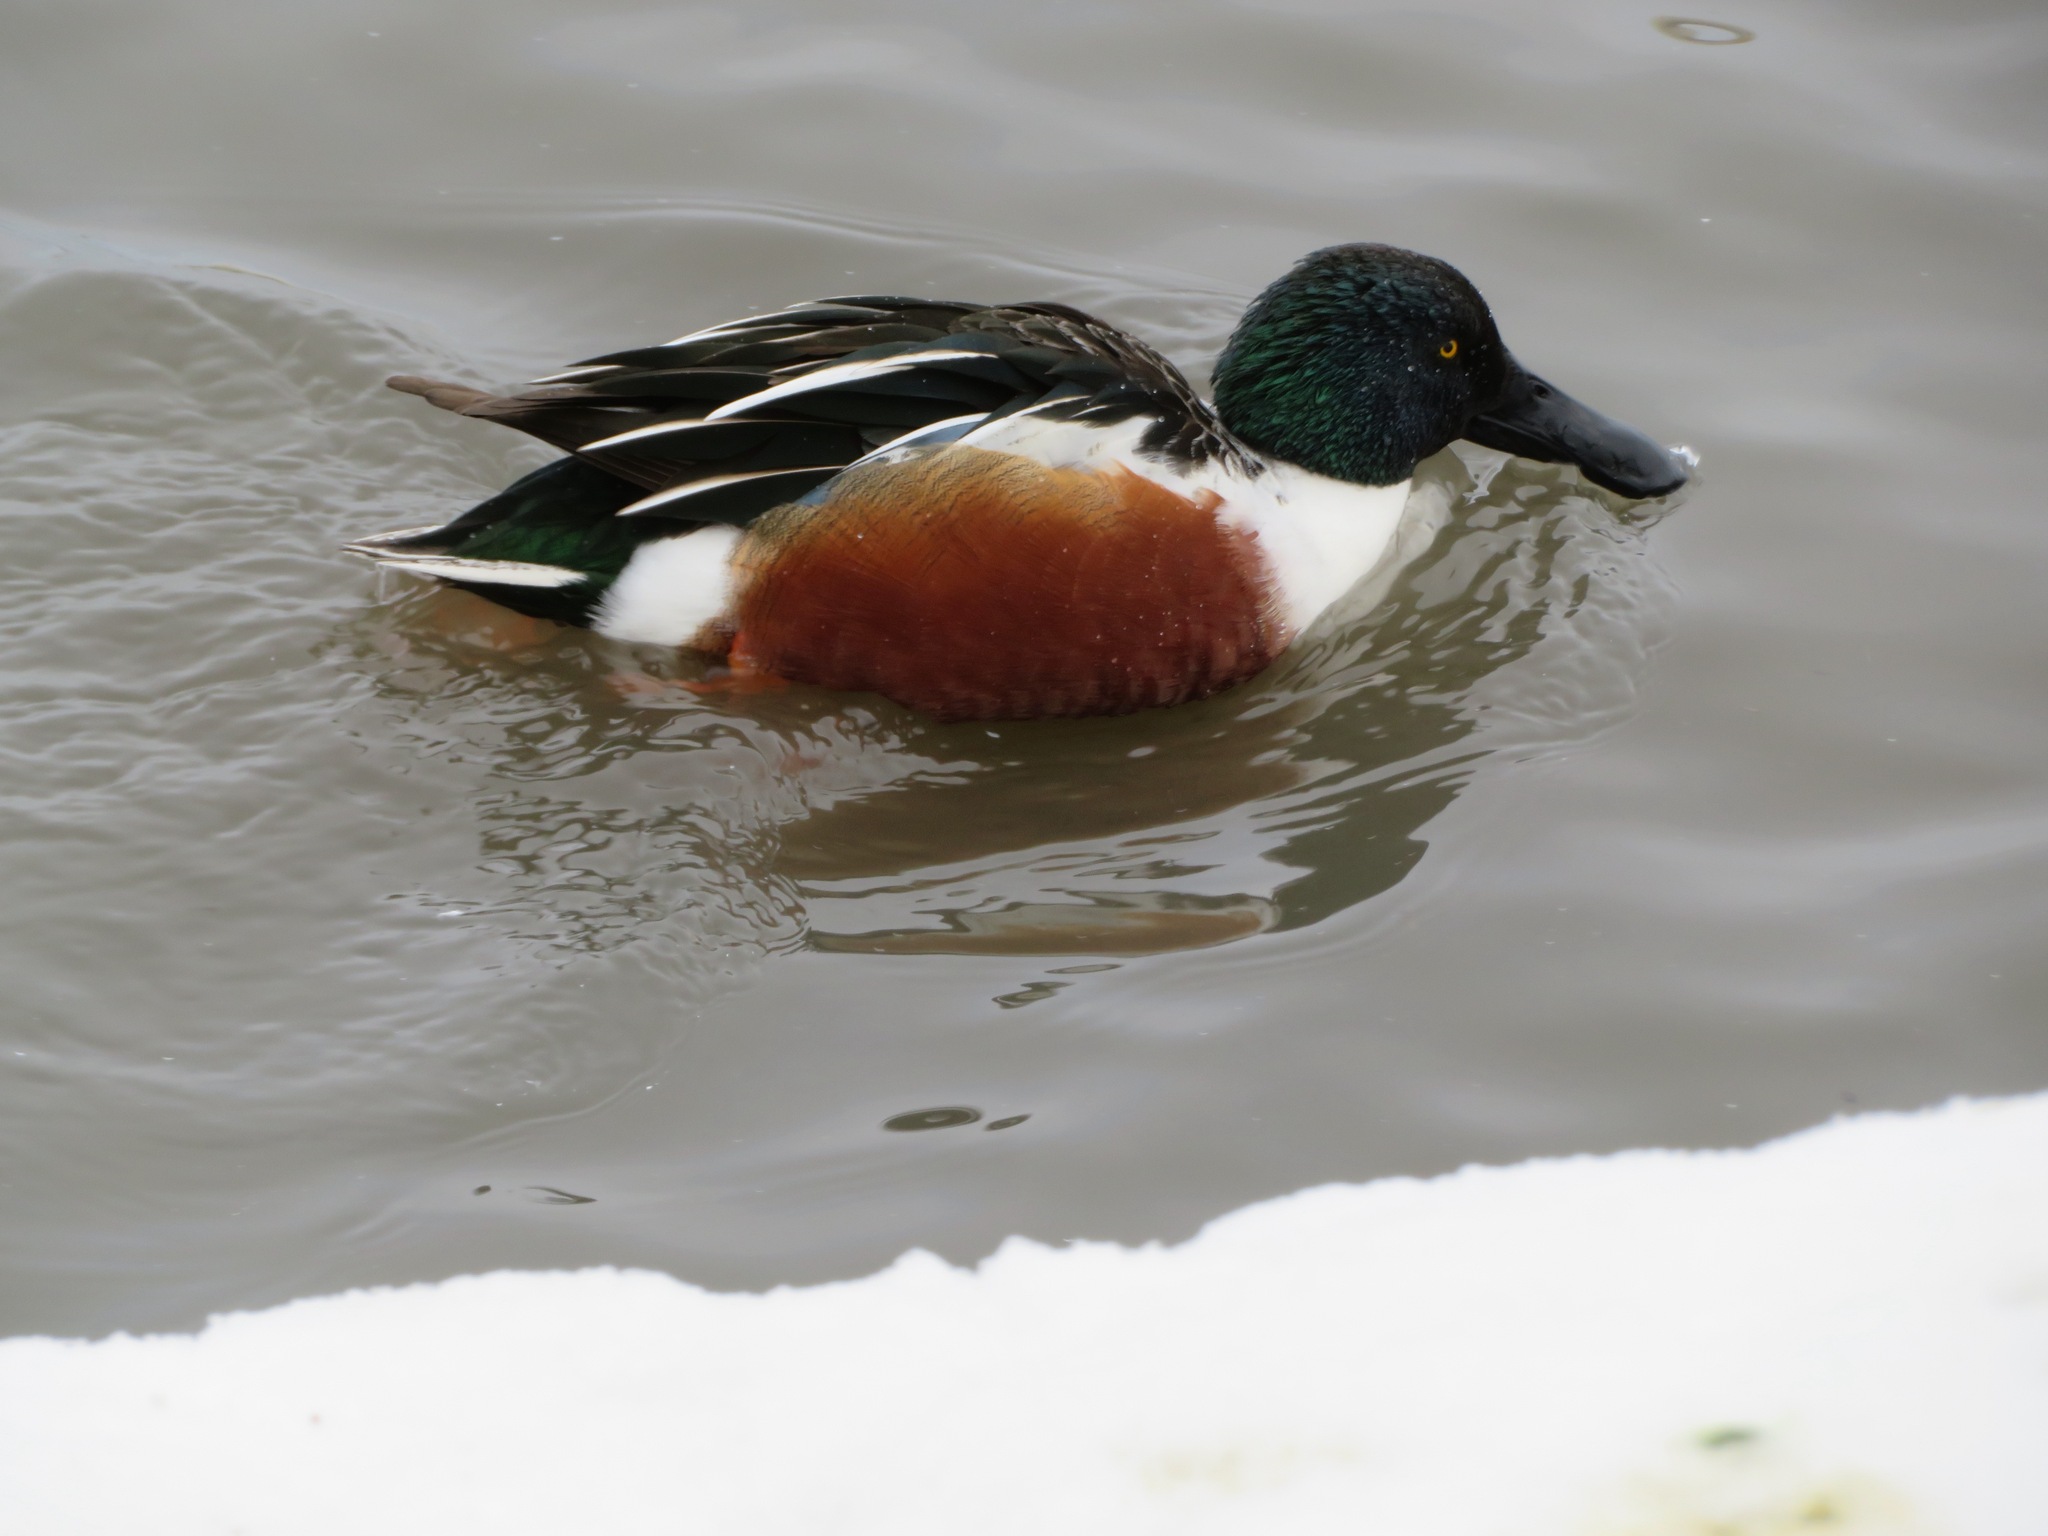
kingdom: Animalia
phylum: Chordata
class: Aves
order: Anseriformes
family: Anatidae
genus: Spatula
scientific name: Spatula clypeata
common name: Northern shoveler
